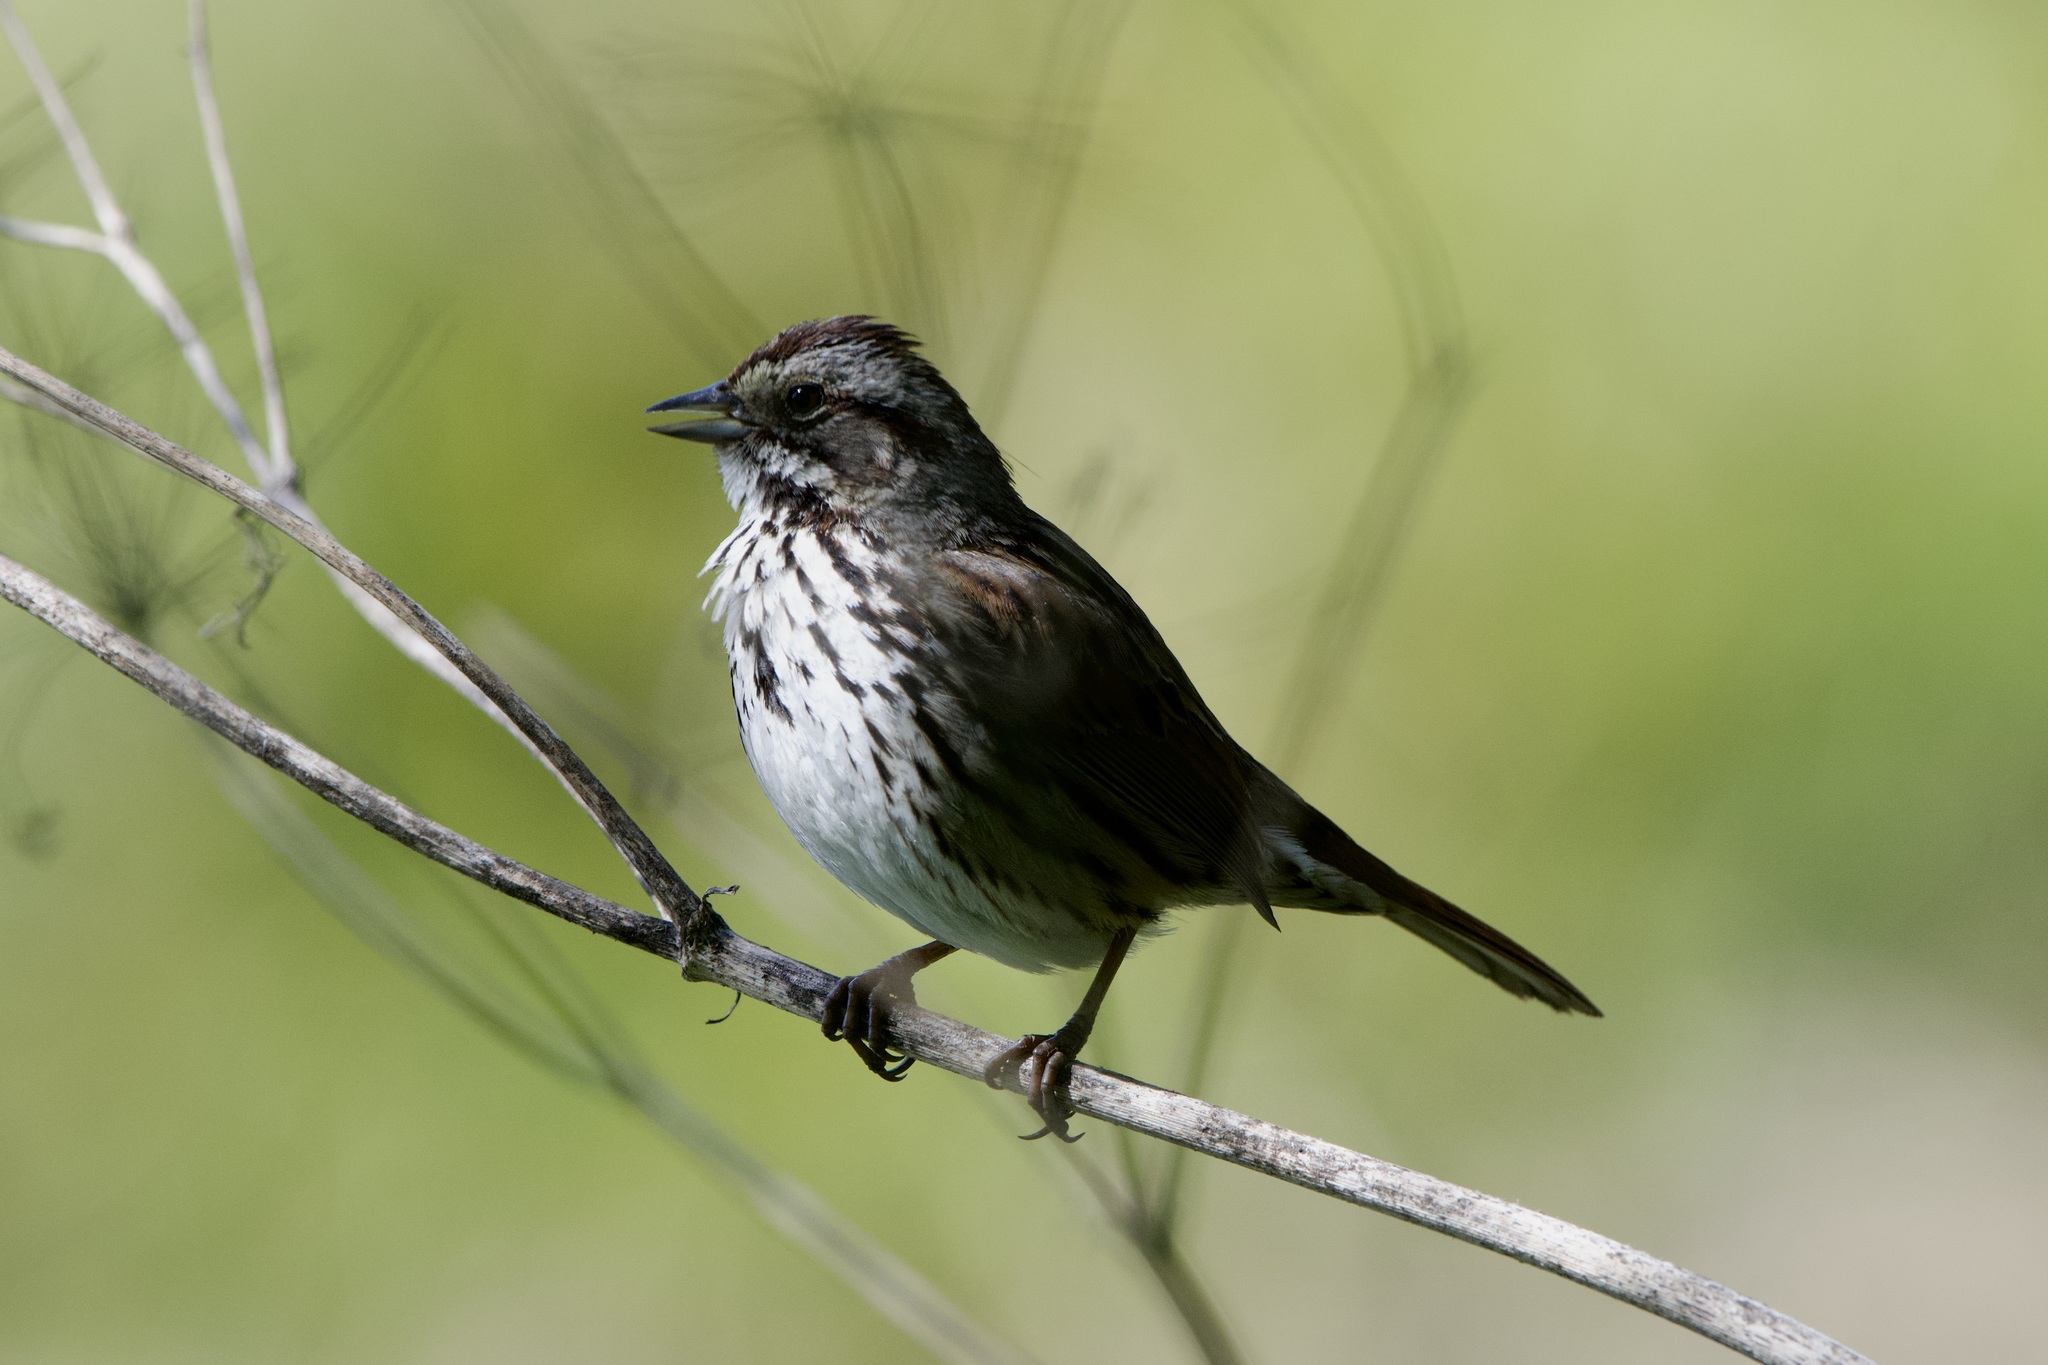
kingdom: Animalia
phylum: Chordata
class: Aves
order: Passeriformes
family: Passerellidae
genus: Melospiza
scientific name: Melospiza melodia
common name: Song sparrow
